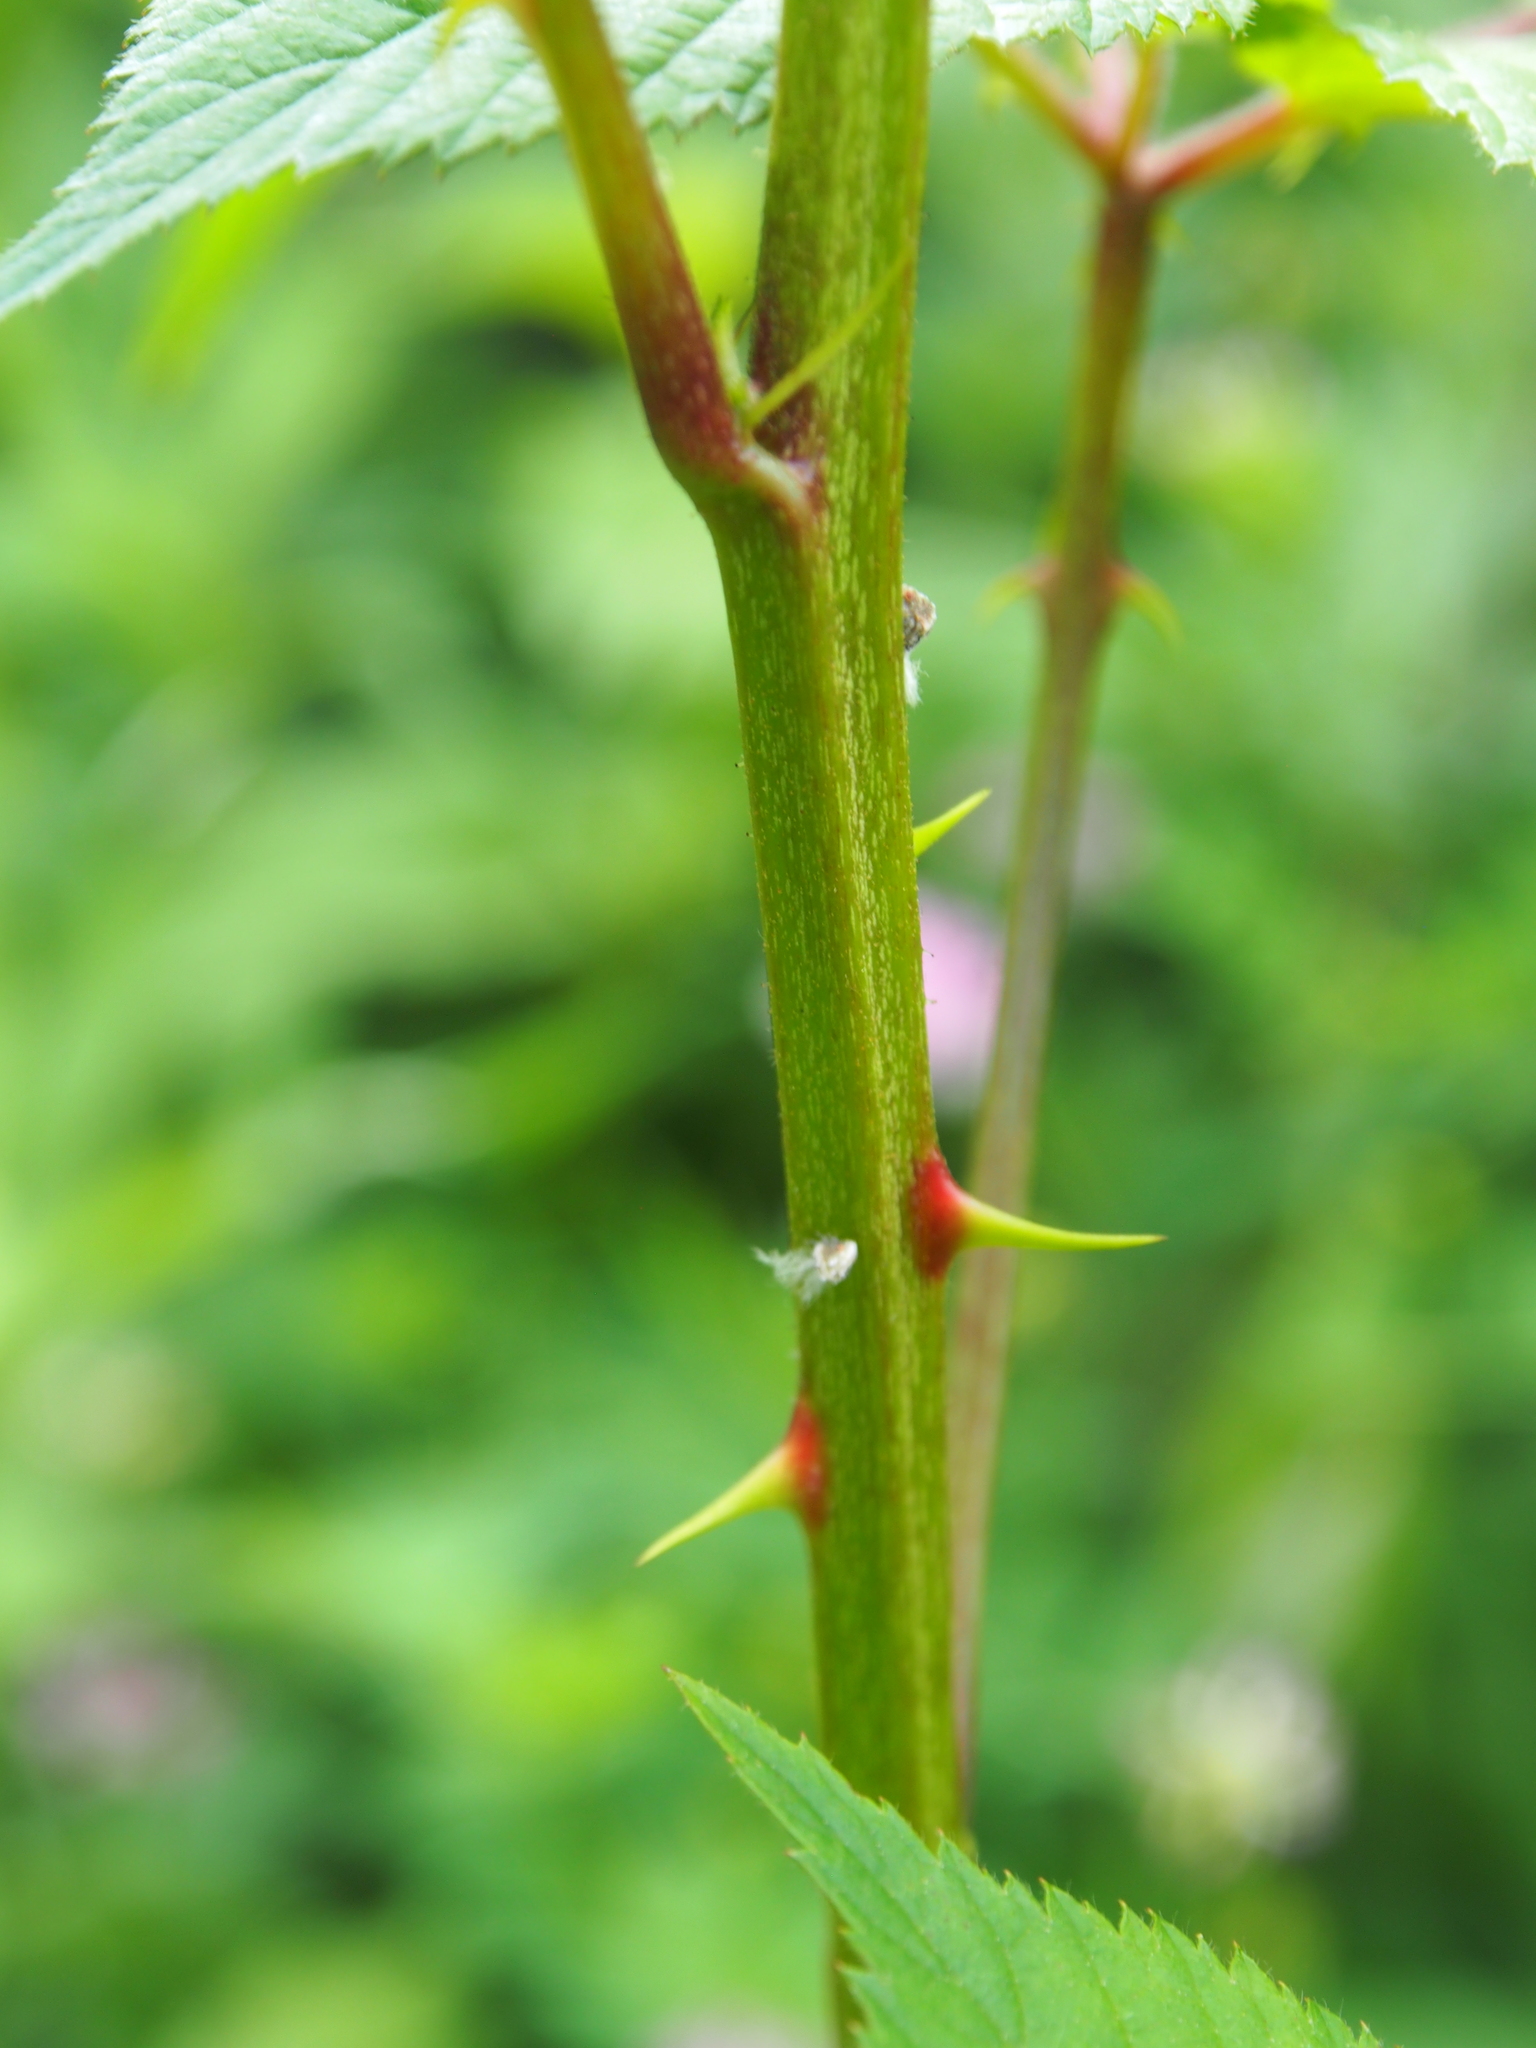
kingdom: Plantae
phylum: Tracheophyta
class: Magnoliopsida
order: Rosales
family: Rosaceae
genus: Rubus
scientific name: Rubus allegheniensis
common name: Allegheny blackberry
